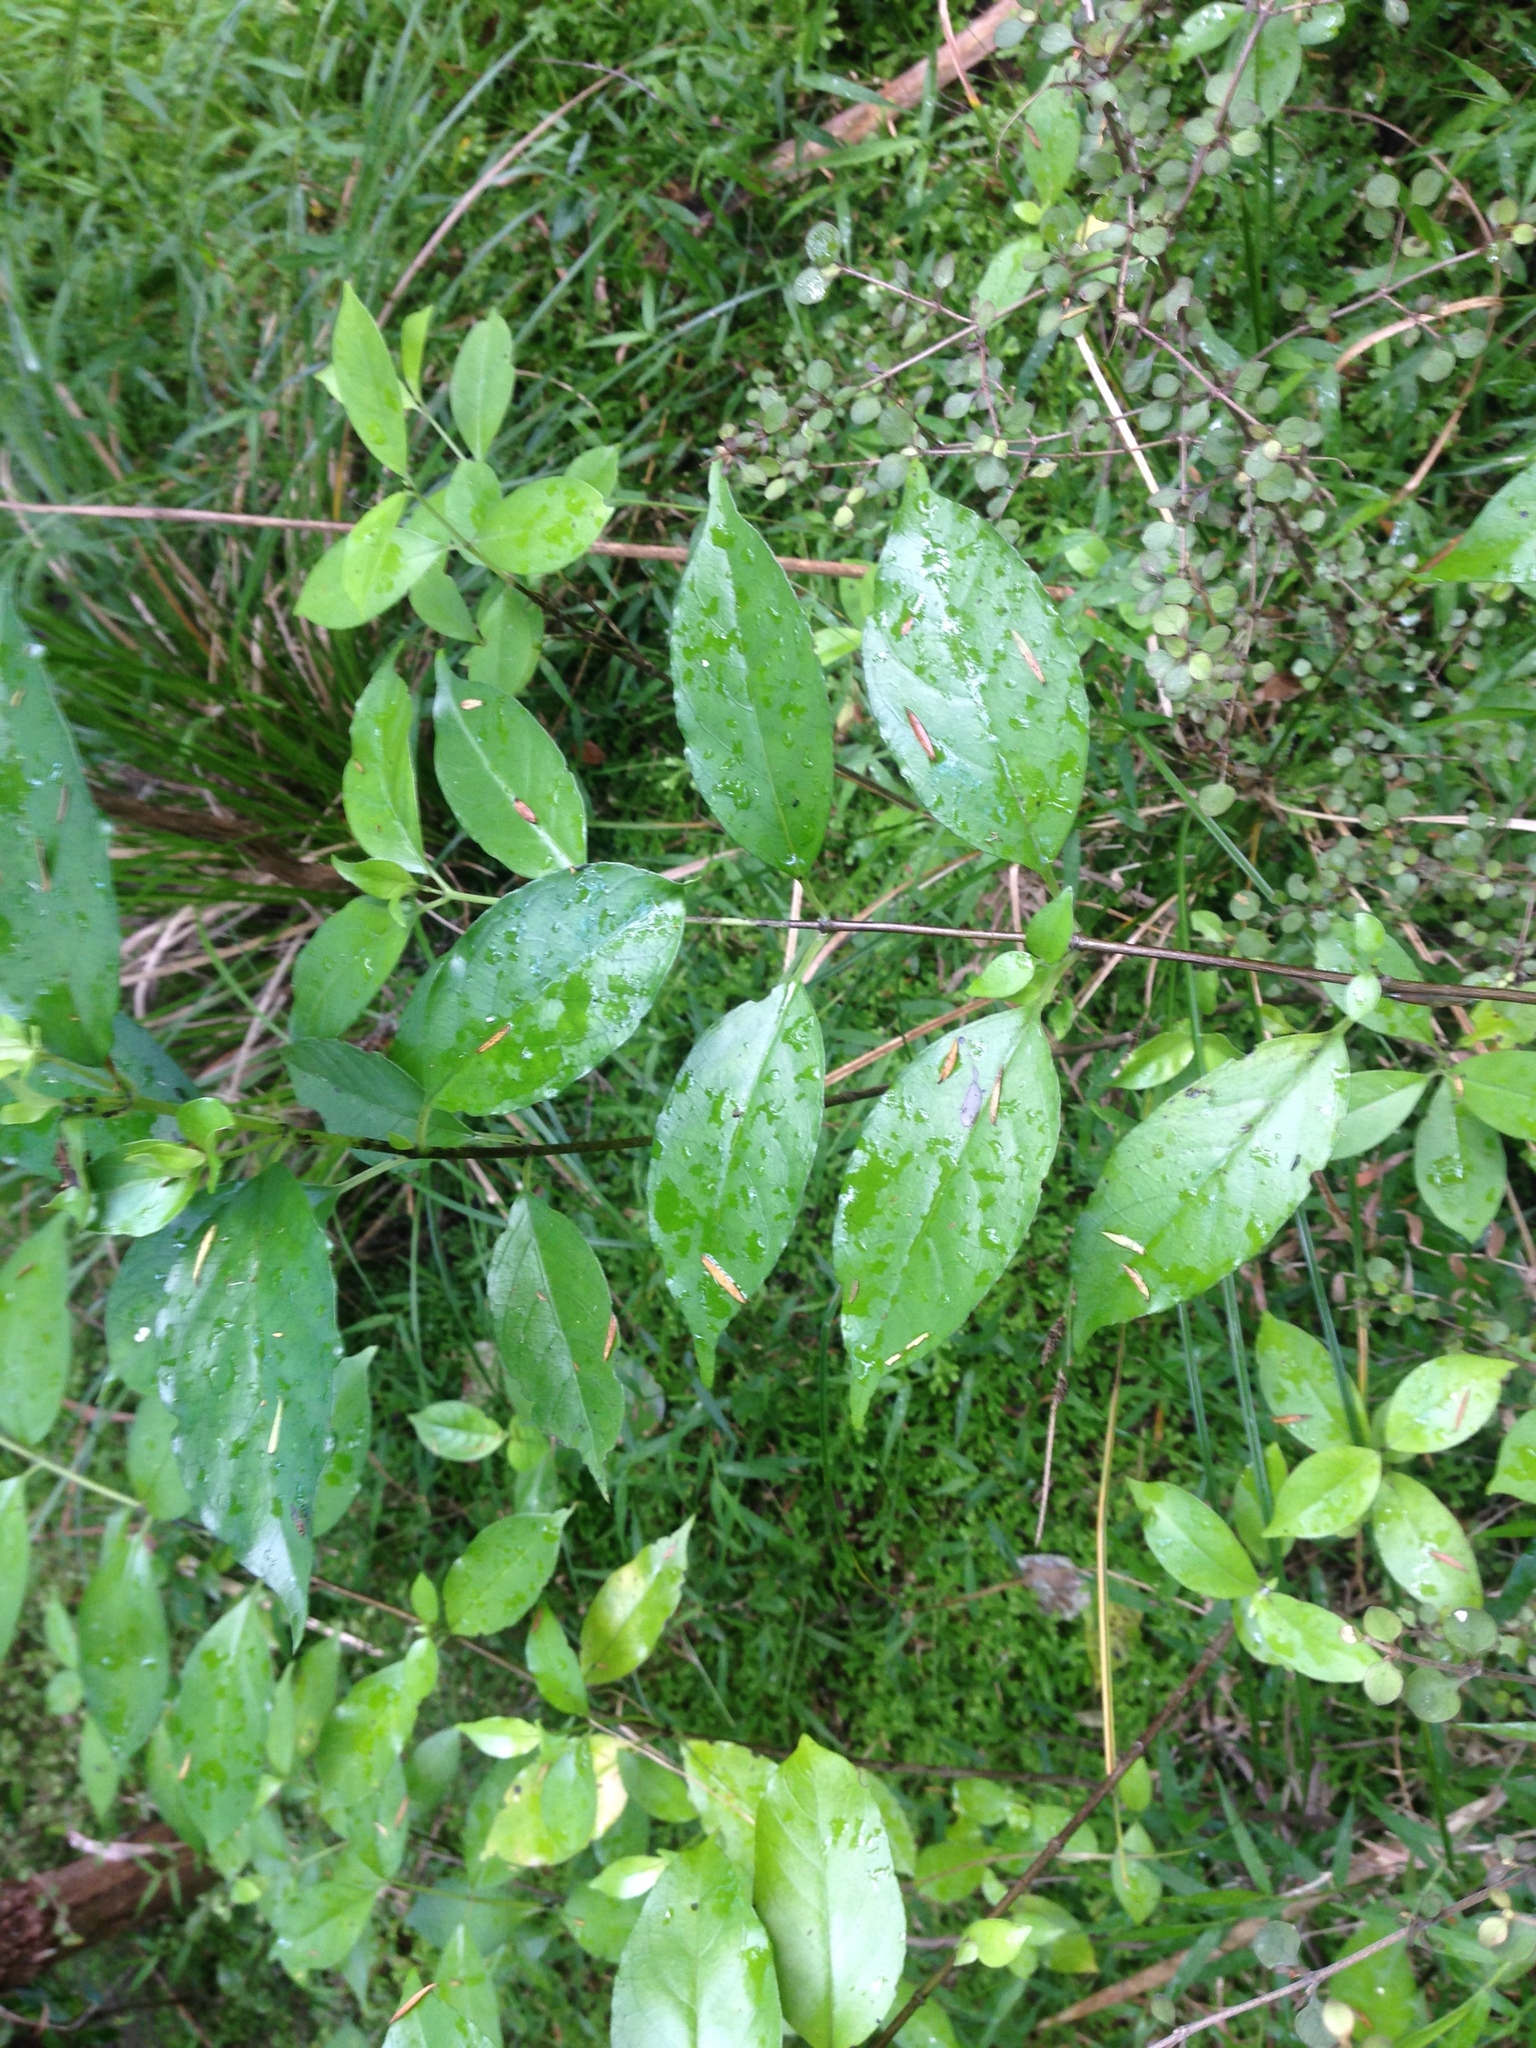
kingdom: Plantae
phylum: Tracheophyta
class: Magnoliopsida
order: Gentianales
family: Loganiaceae
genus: Geniostoma
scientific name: Geniostoma ligustrifolium
